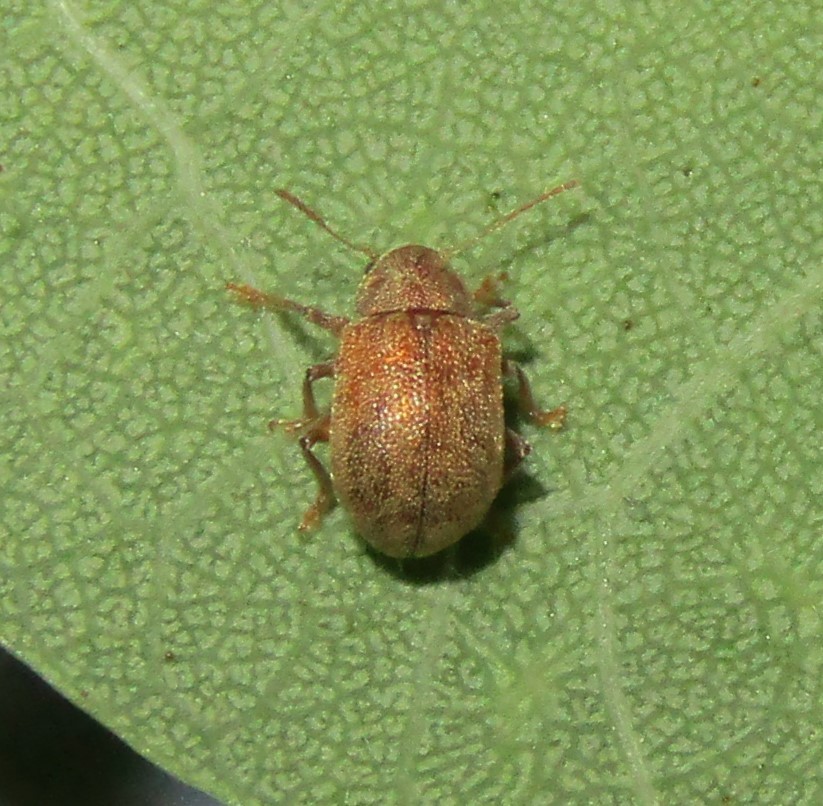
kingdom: Animalia
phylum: Arthropoda
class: Insecta
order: Coleoptera
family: Chrysomelidae
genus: Demotina
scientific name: Demotina modesta
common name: Leaf beetle
